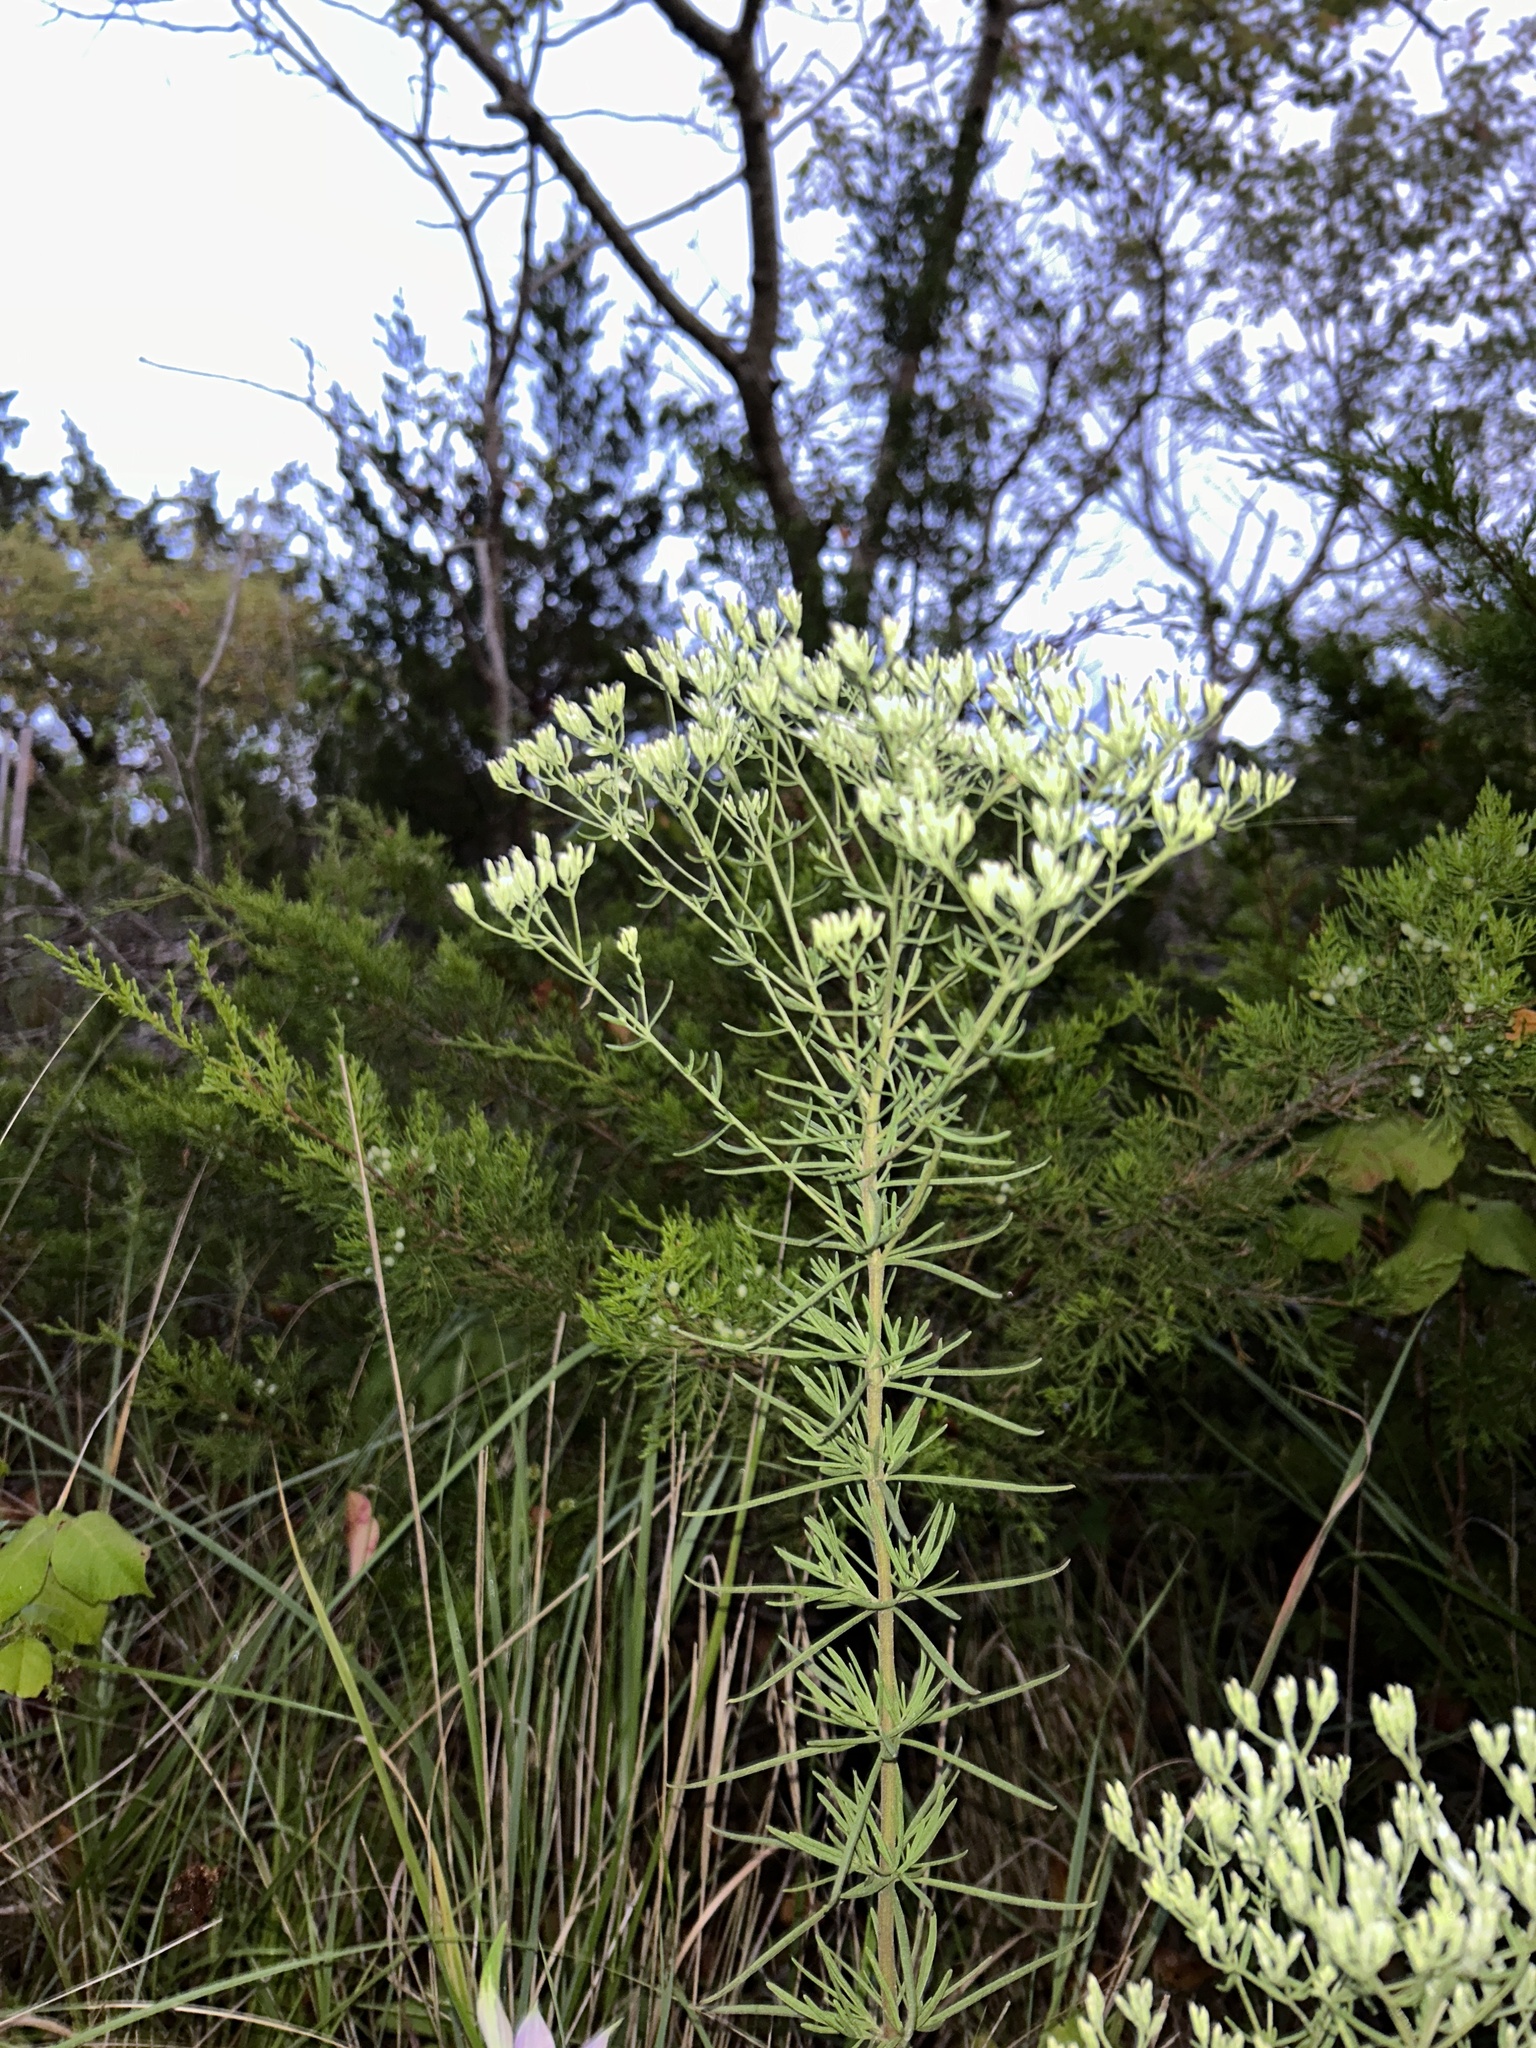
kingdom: Plantae
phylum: Tracheophyta
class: Magnoliopsida
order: Asterales
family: Asteraceae
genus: Eupatorium
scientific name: Eupatorium hyssopifolium
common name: Hyssop-leaf thoroughwort
